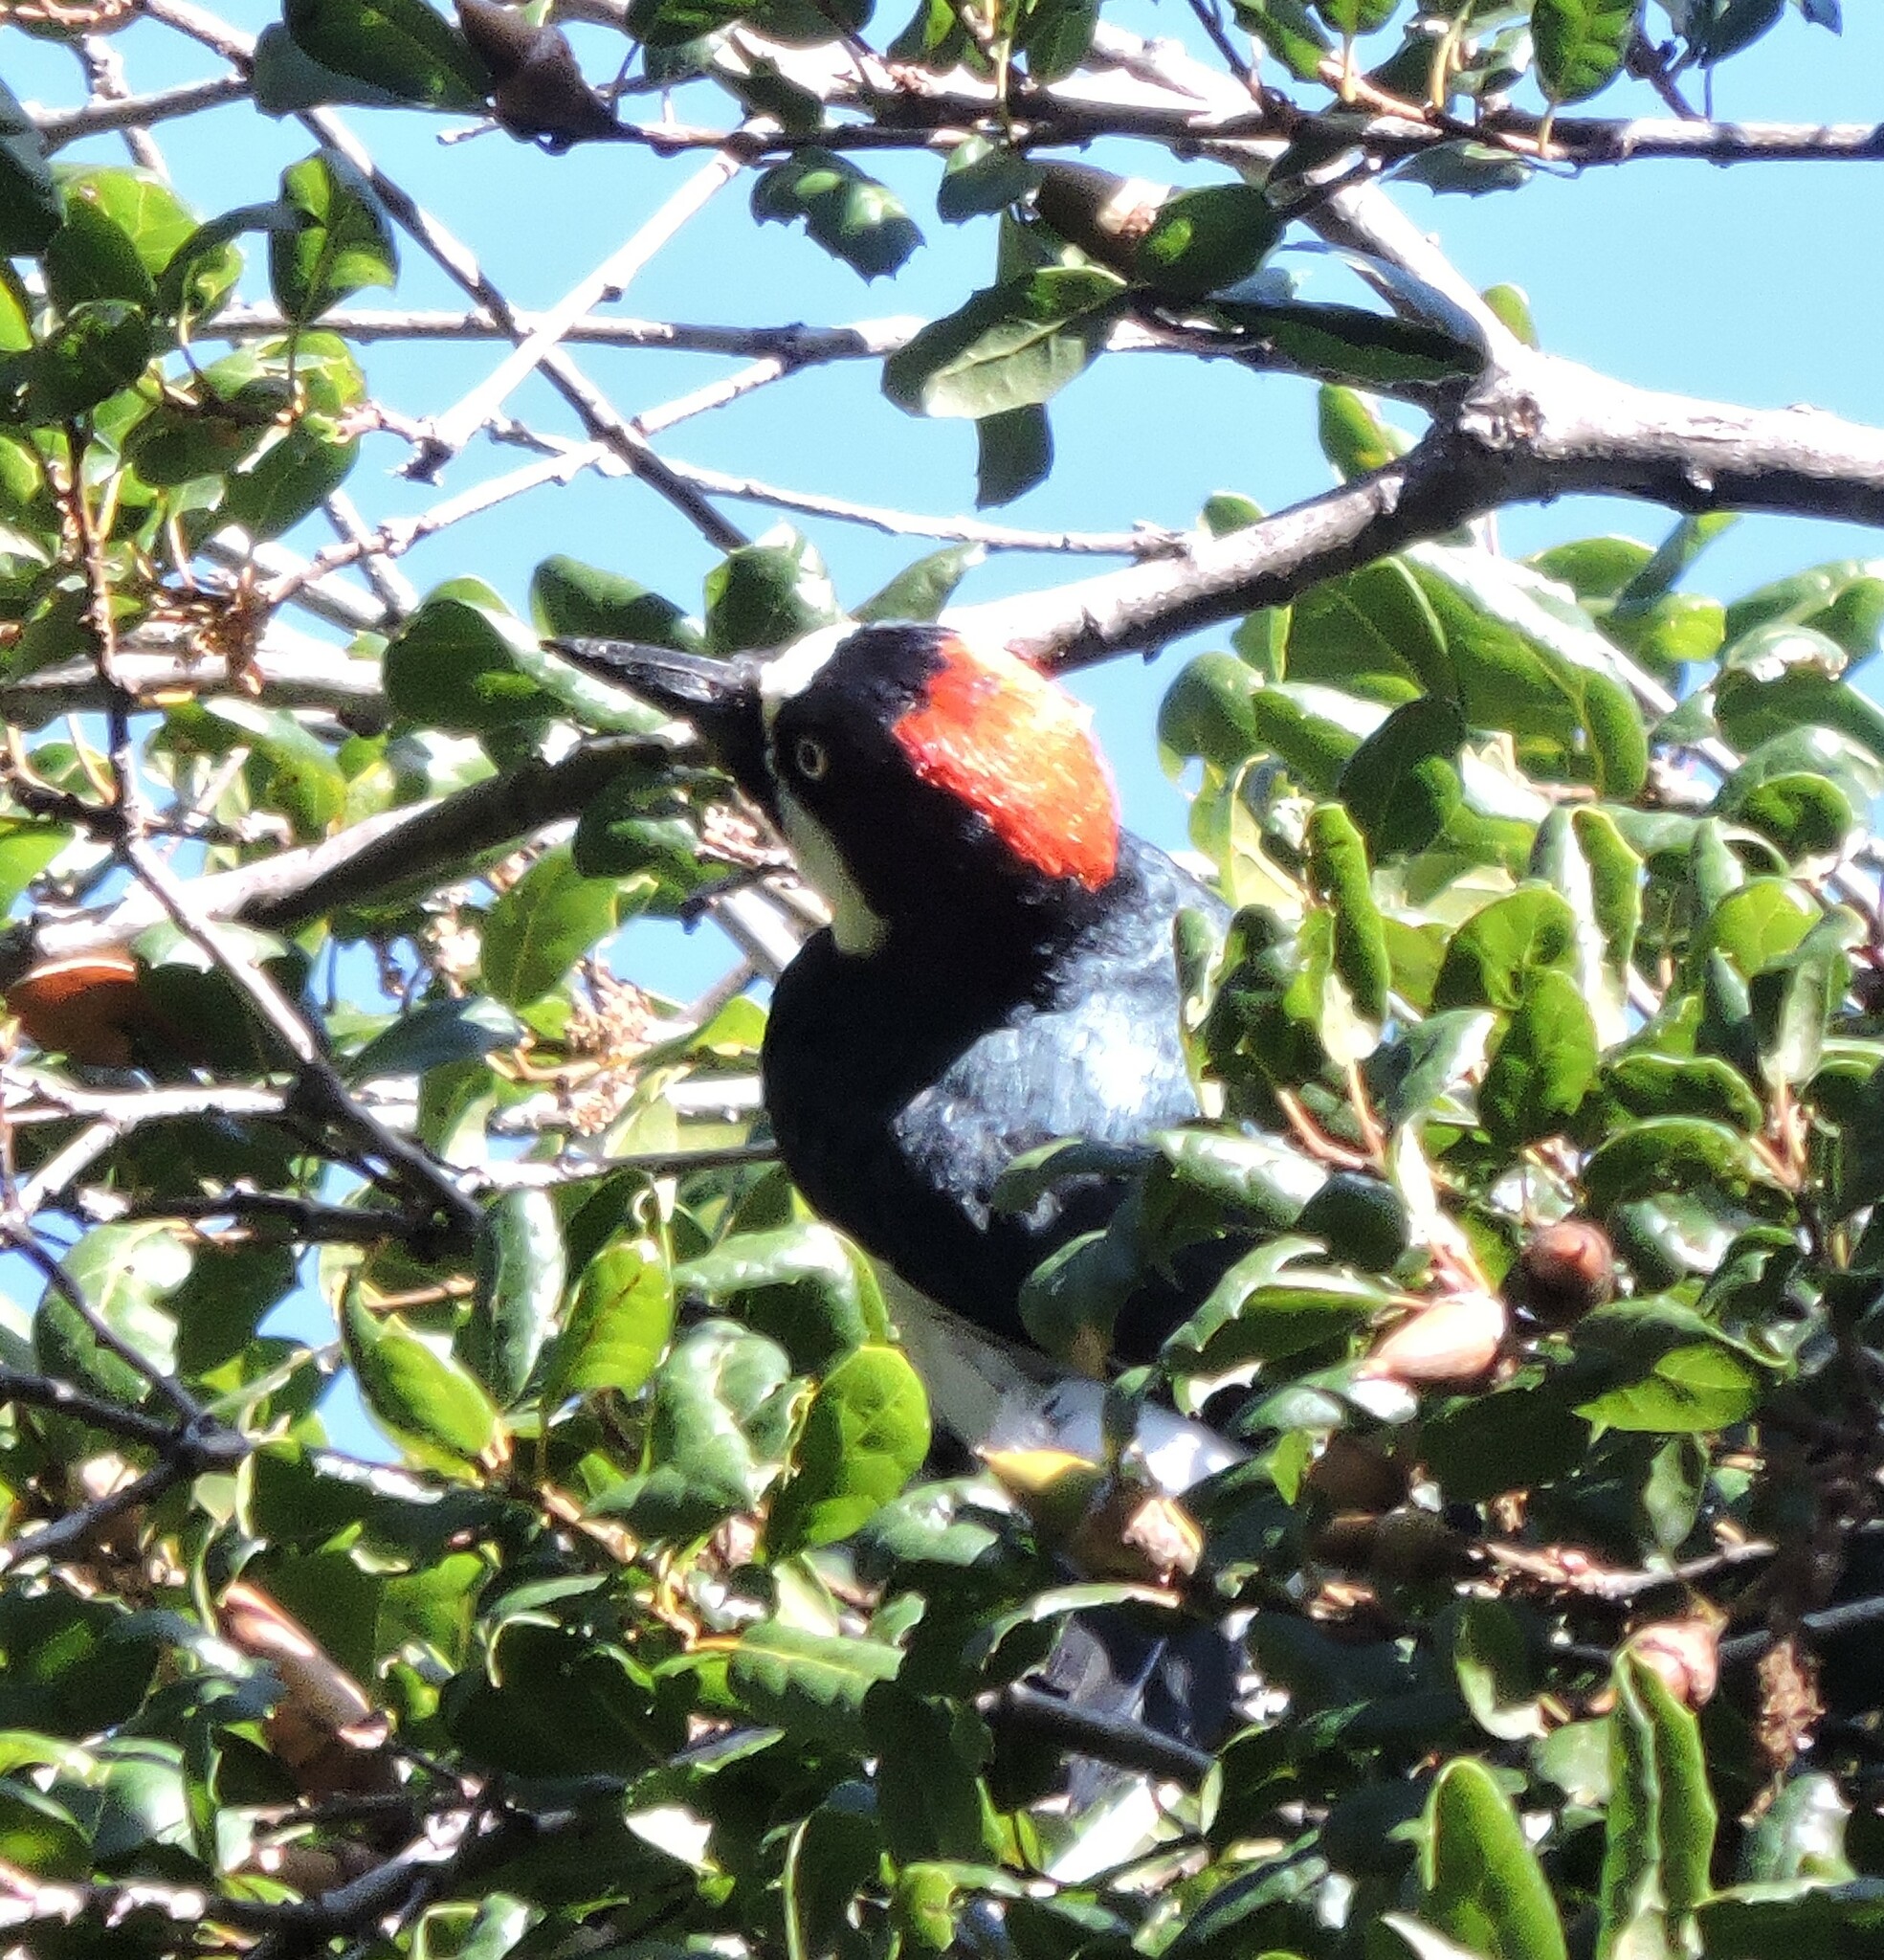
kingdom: Animalia
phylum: Chordata
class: Aves
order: Piciformes
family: Picidae
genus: Melanerpes
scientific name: Melanerpes formicivorus
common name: Acorn woodpecker
